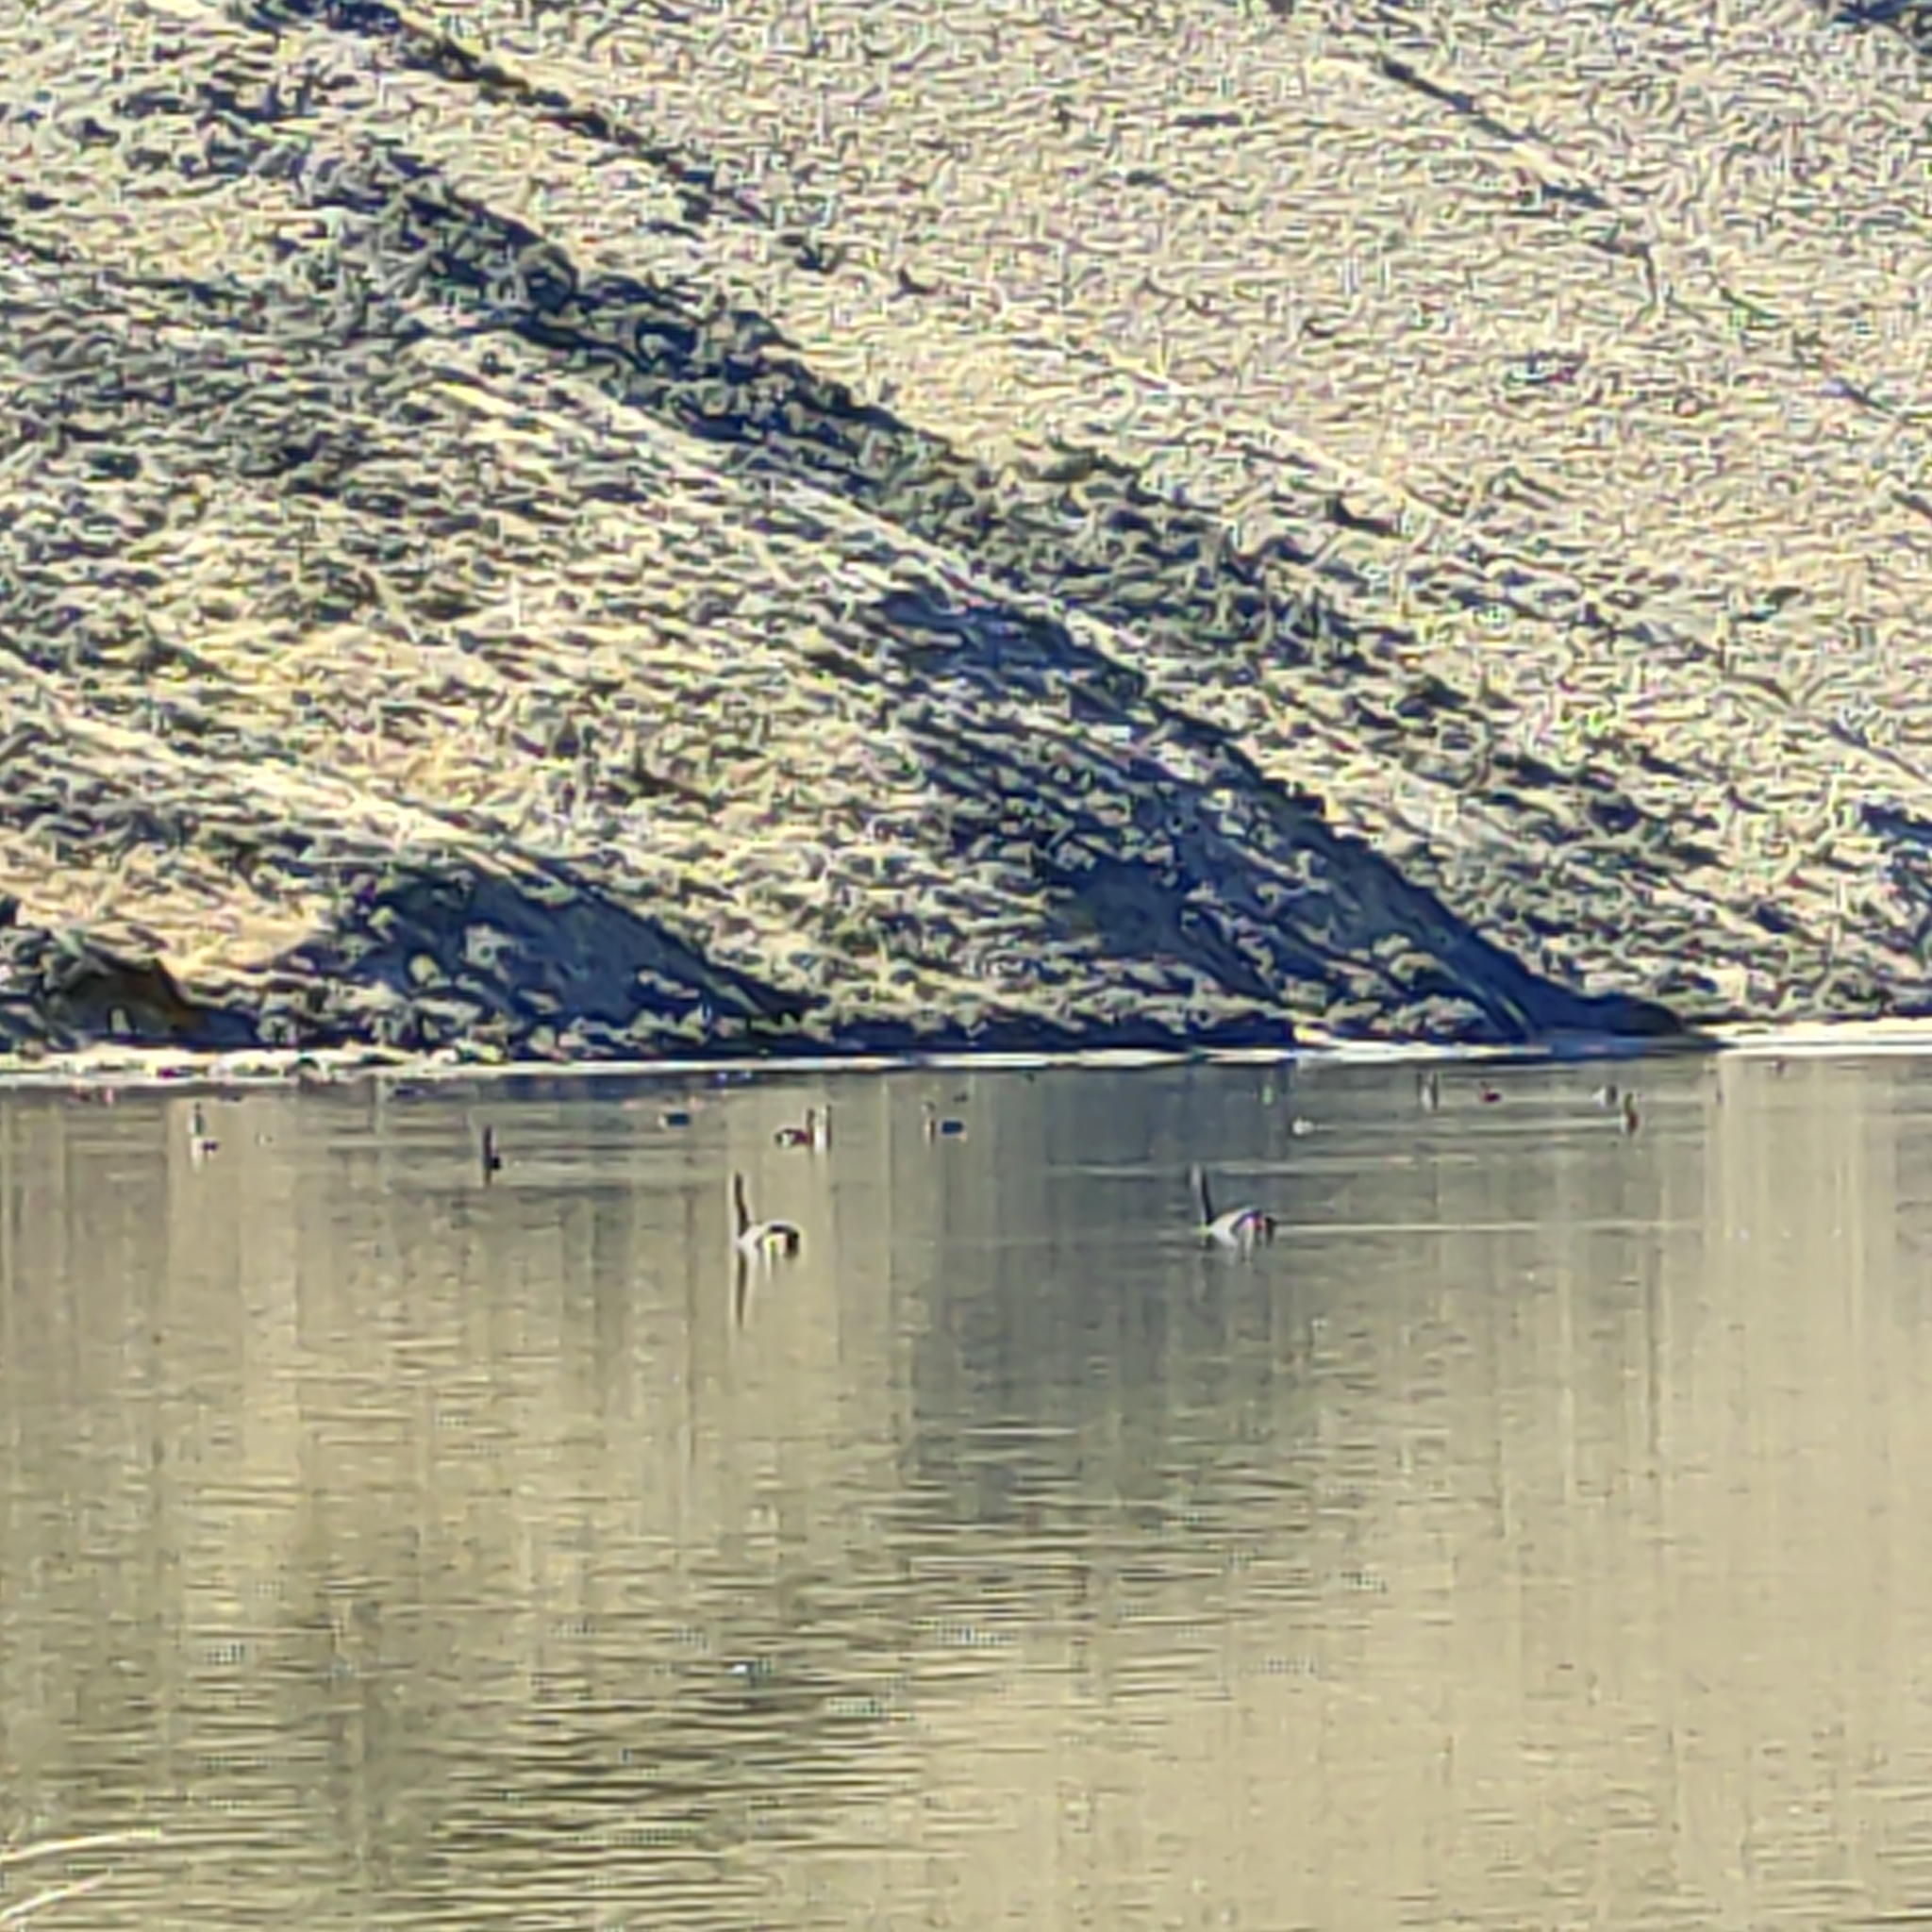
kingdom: Animalia
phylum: Chordata
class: Aves
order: Anseriformes
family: Anatidae
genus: Cygnus
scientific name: Cygnus atratus
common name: Black swan
